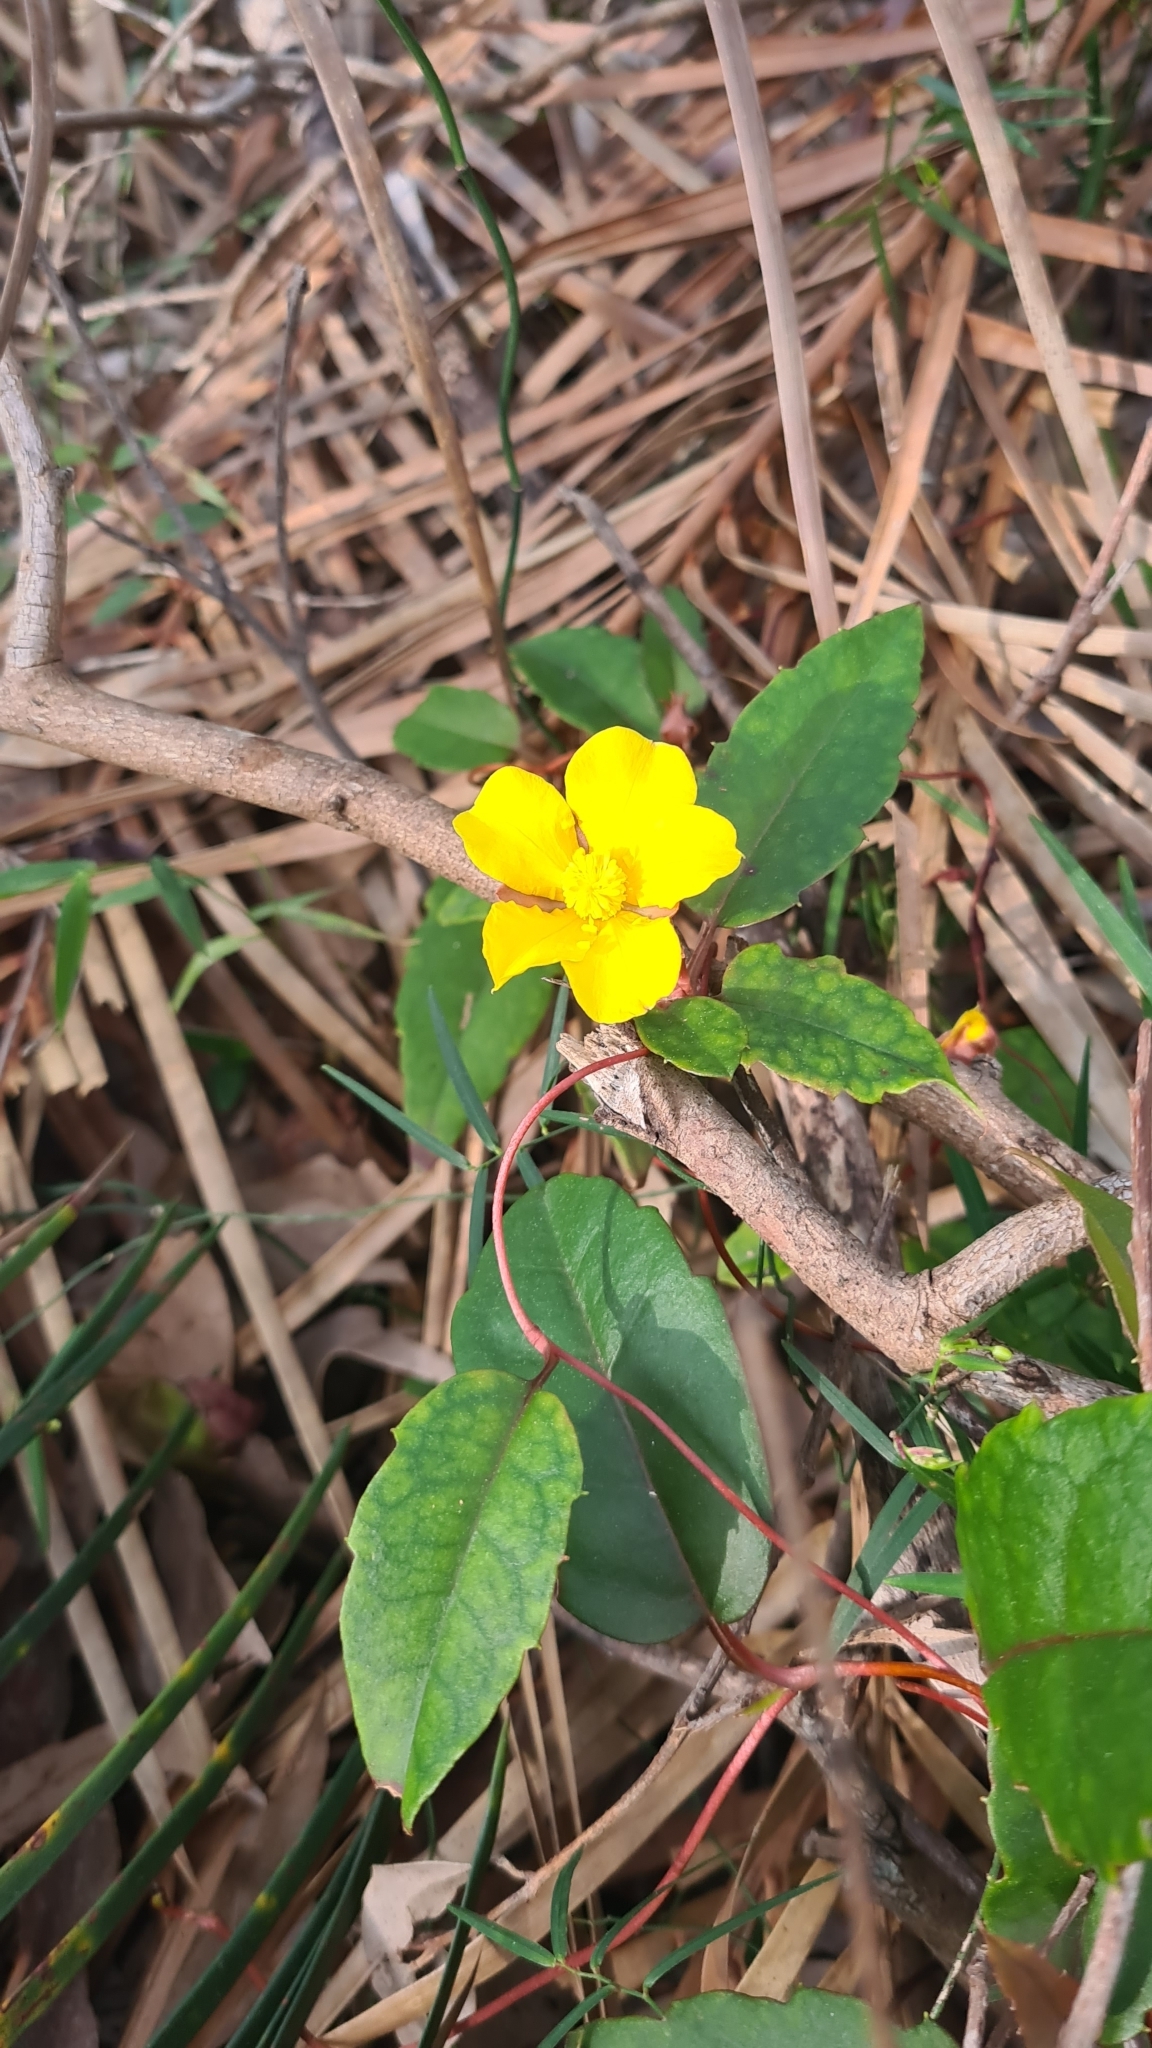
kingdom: Plantae
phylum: Tracheophyta
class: Magnoliopsida
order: Dilleniales
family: Dilleniaceae
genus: Hibbertia
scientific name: Hibbertia dentata
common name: Trailing guinea-flower
